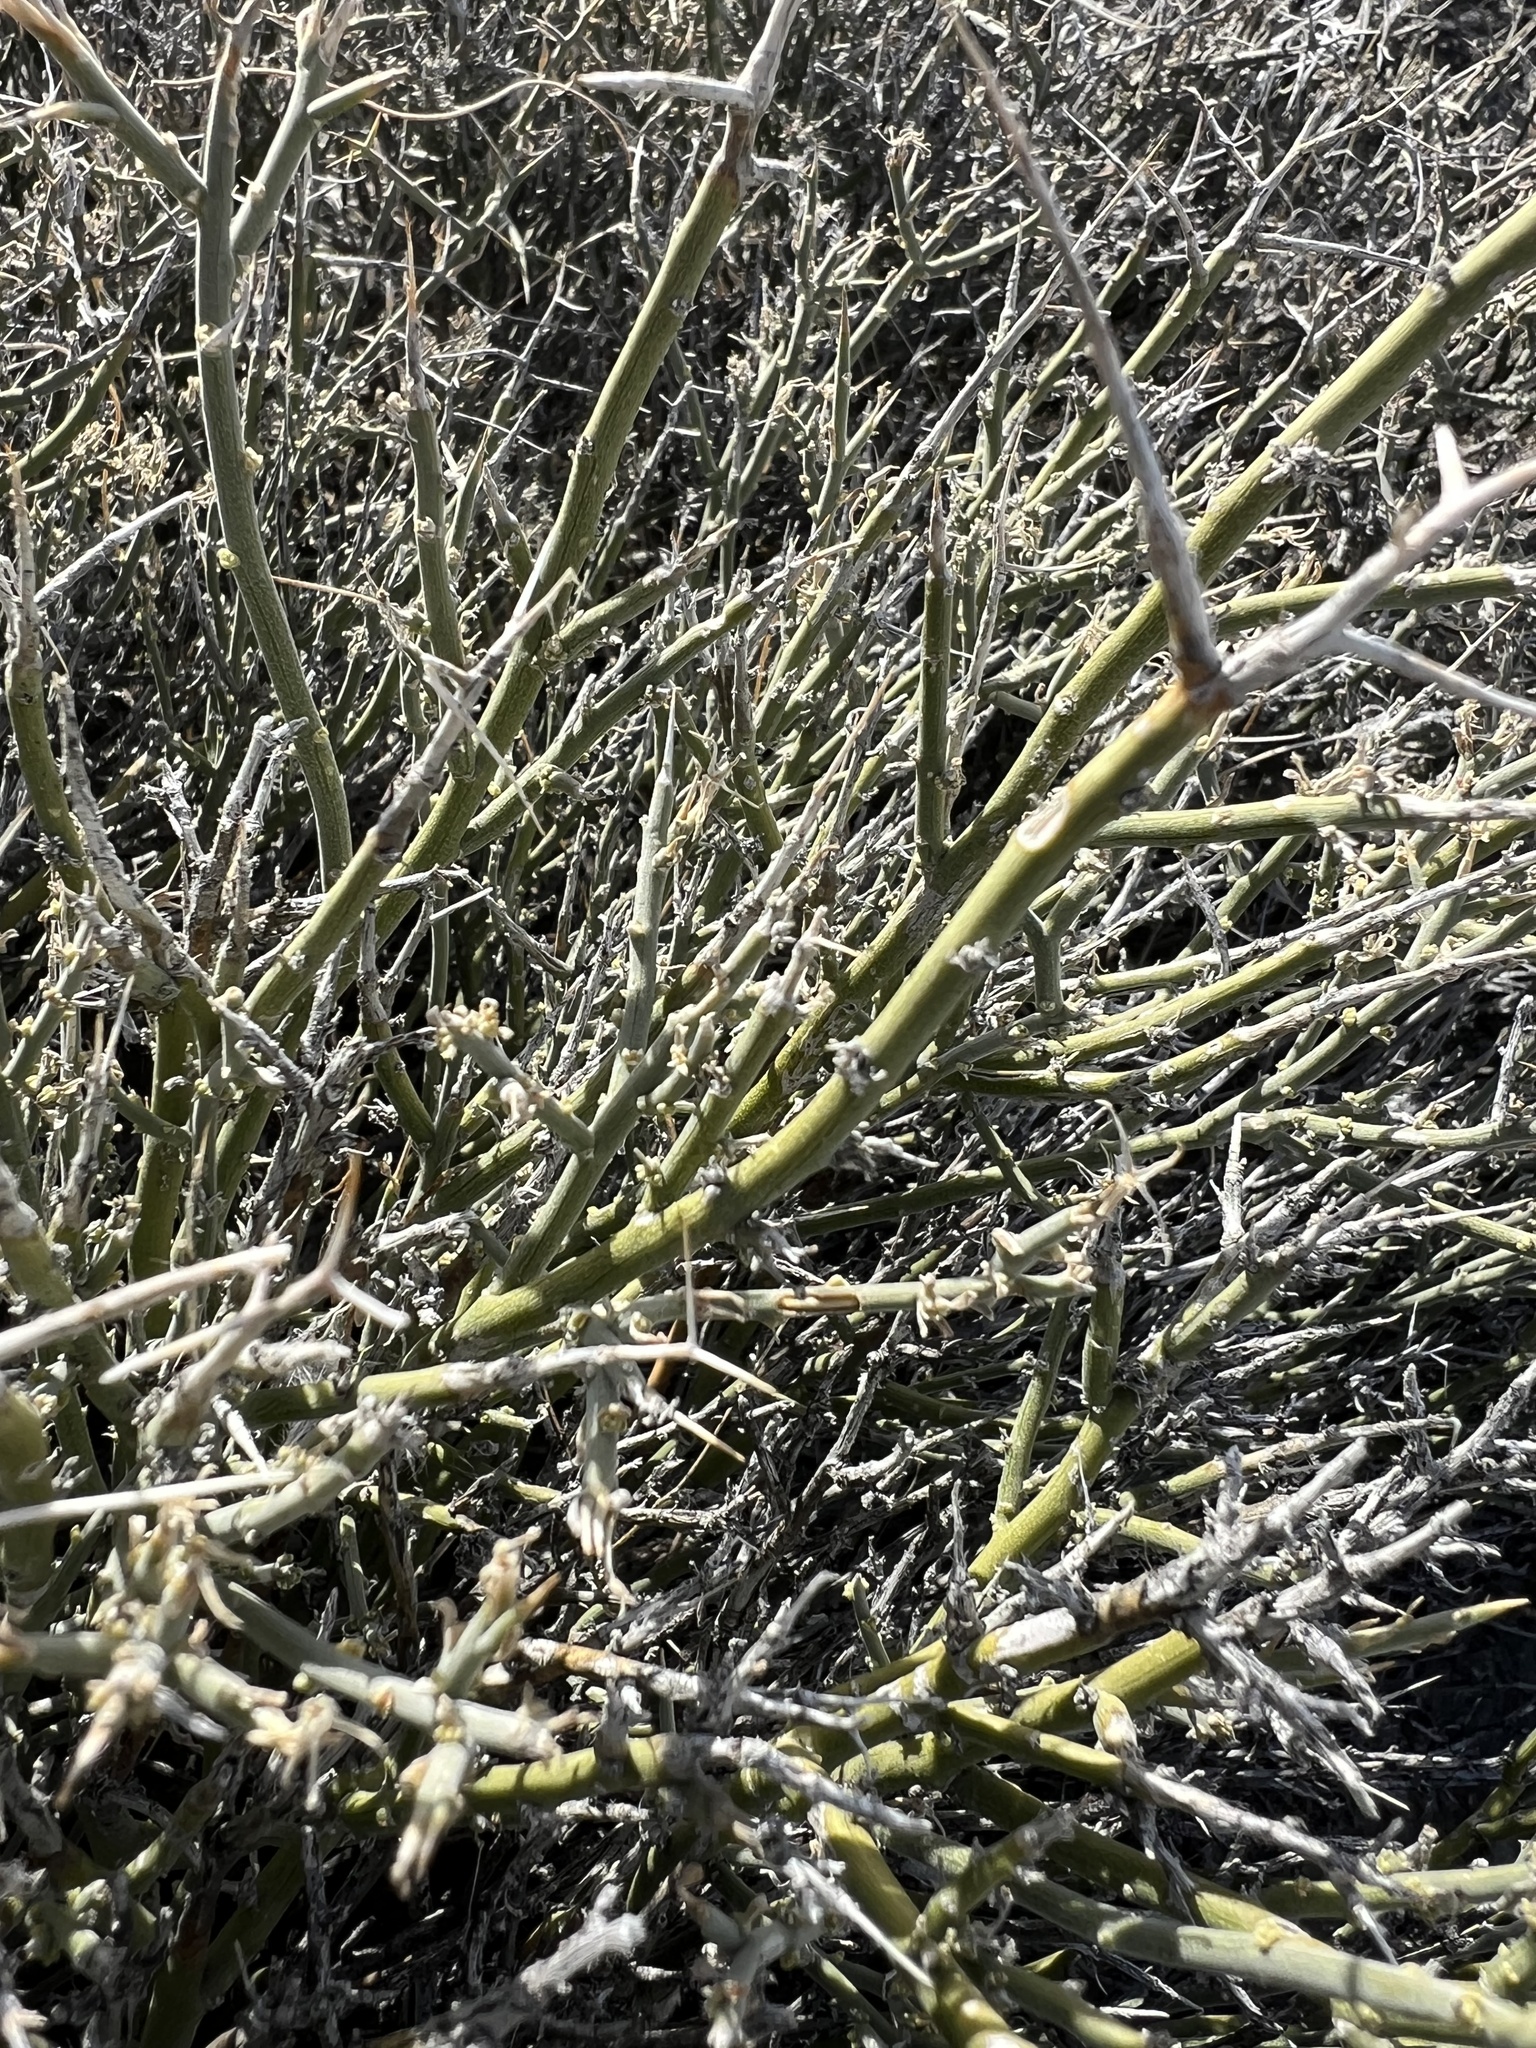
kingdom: Plantae
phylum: Tracheophyta
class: Magnoliopsida
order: Lamiales
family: Oleaceae
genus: Menodora
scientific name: Menodora spinescens
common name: Spiny menodora
